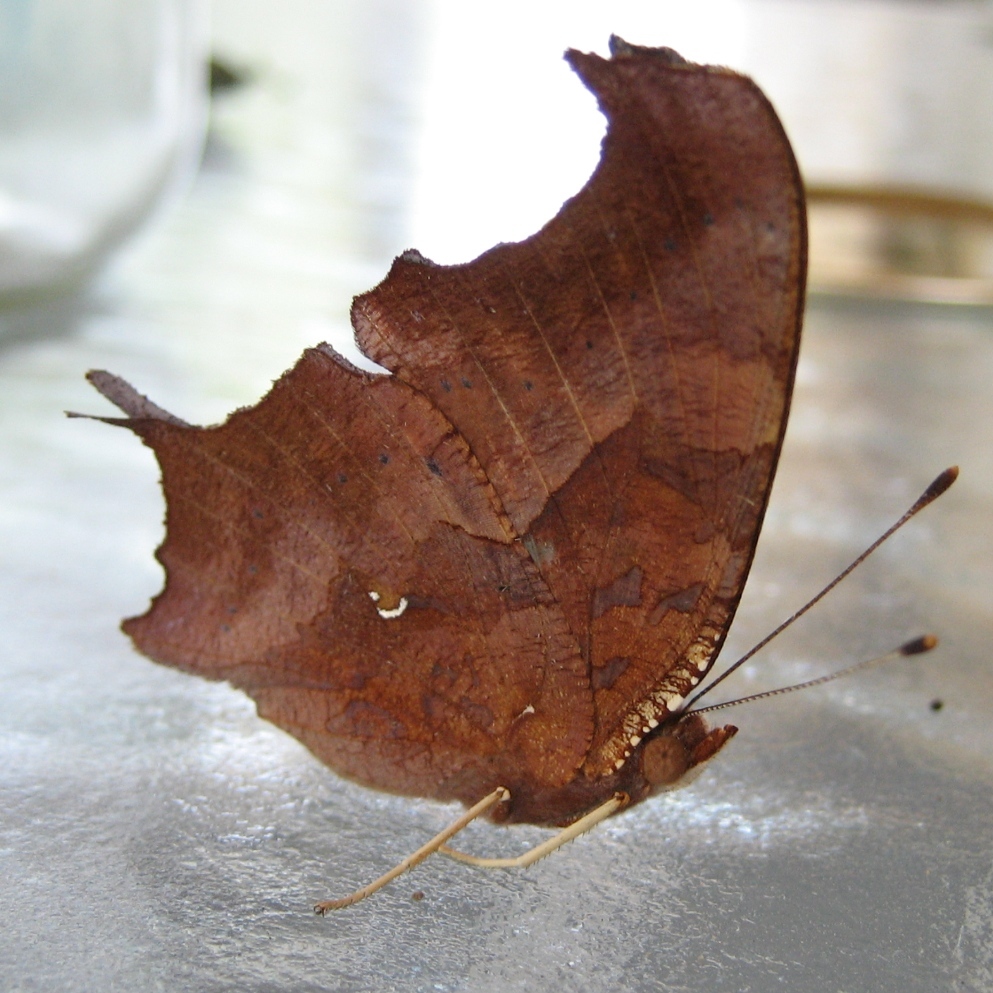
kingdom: Animalia
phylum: Arthropoda
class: Insecta
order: Lepidoptera
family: Nymphalidae
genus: Polygonia
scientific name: Polygonia interrogationis
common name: Question mark
